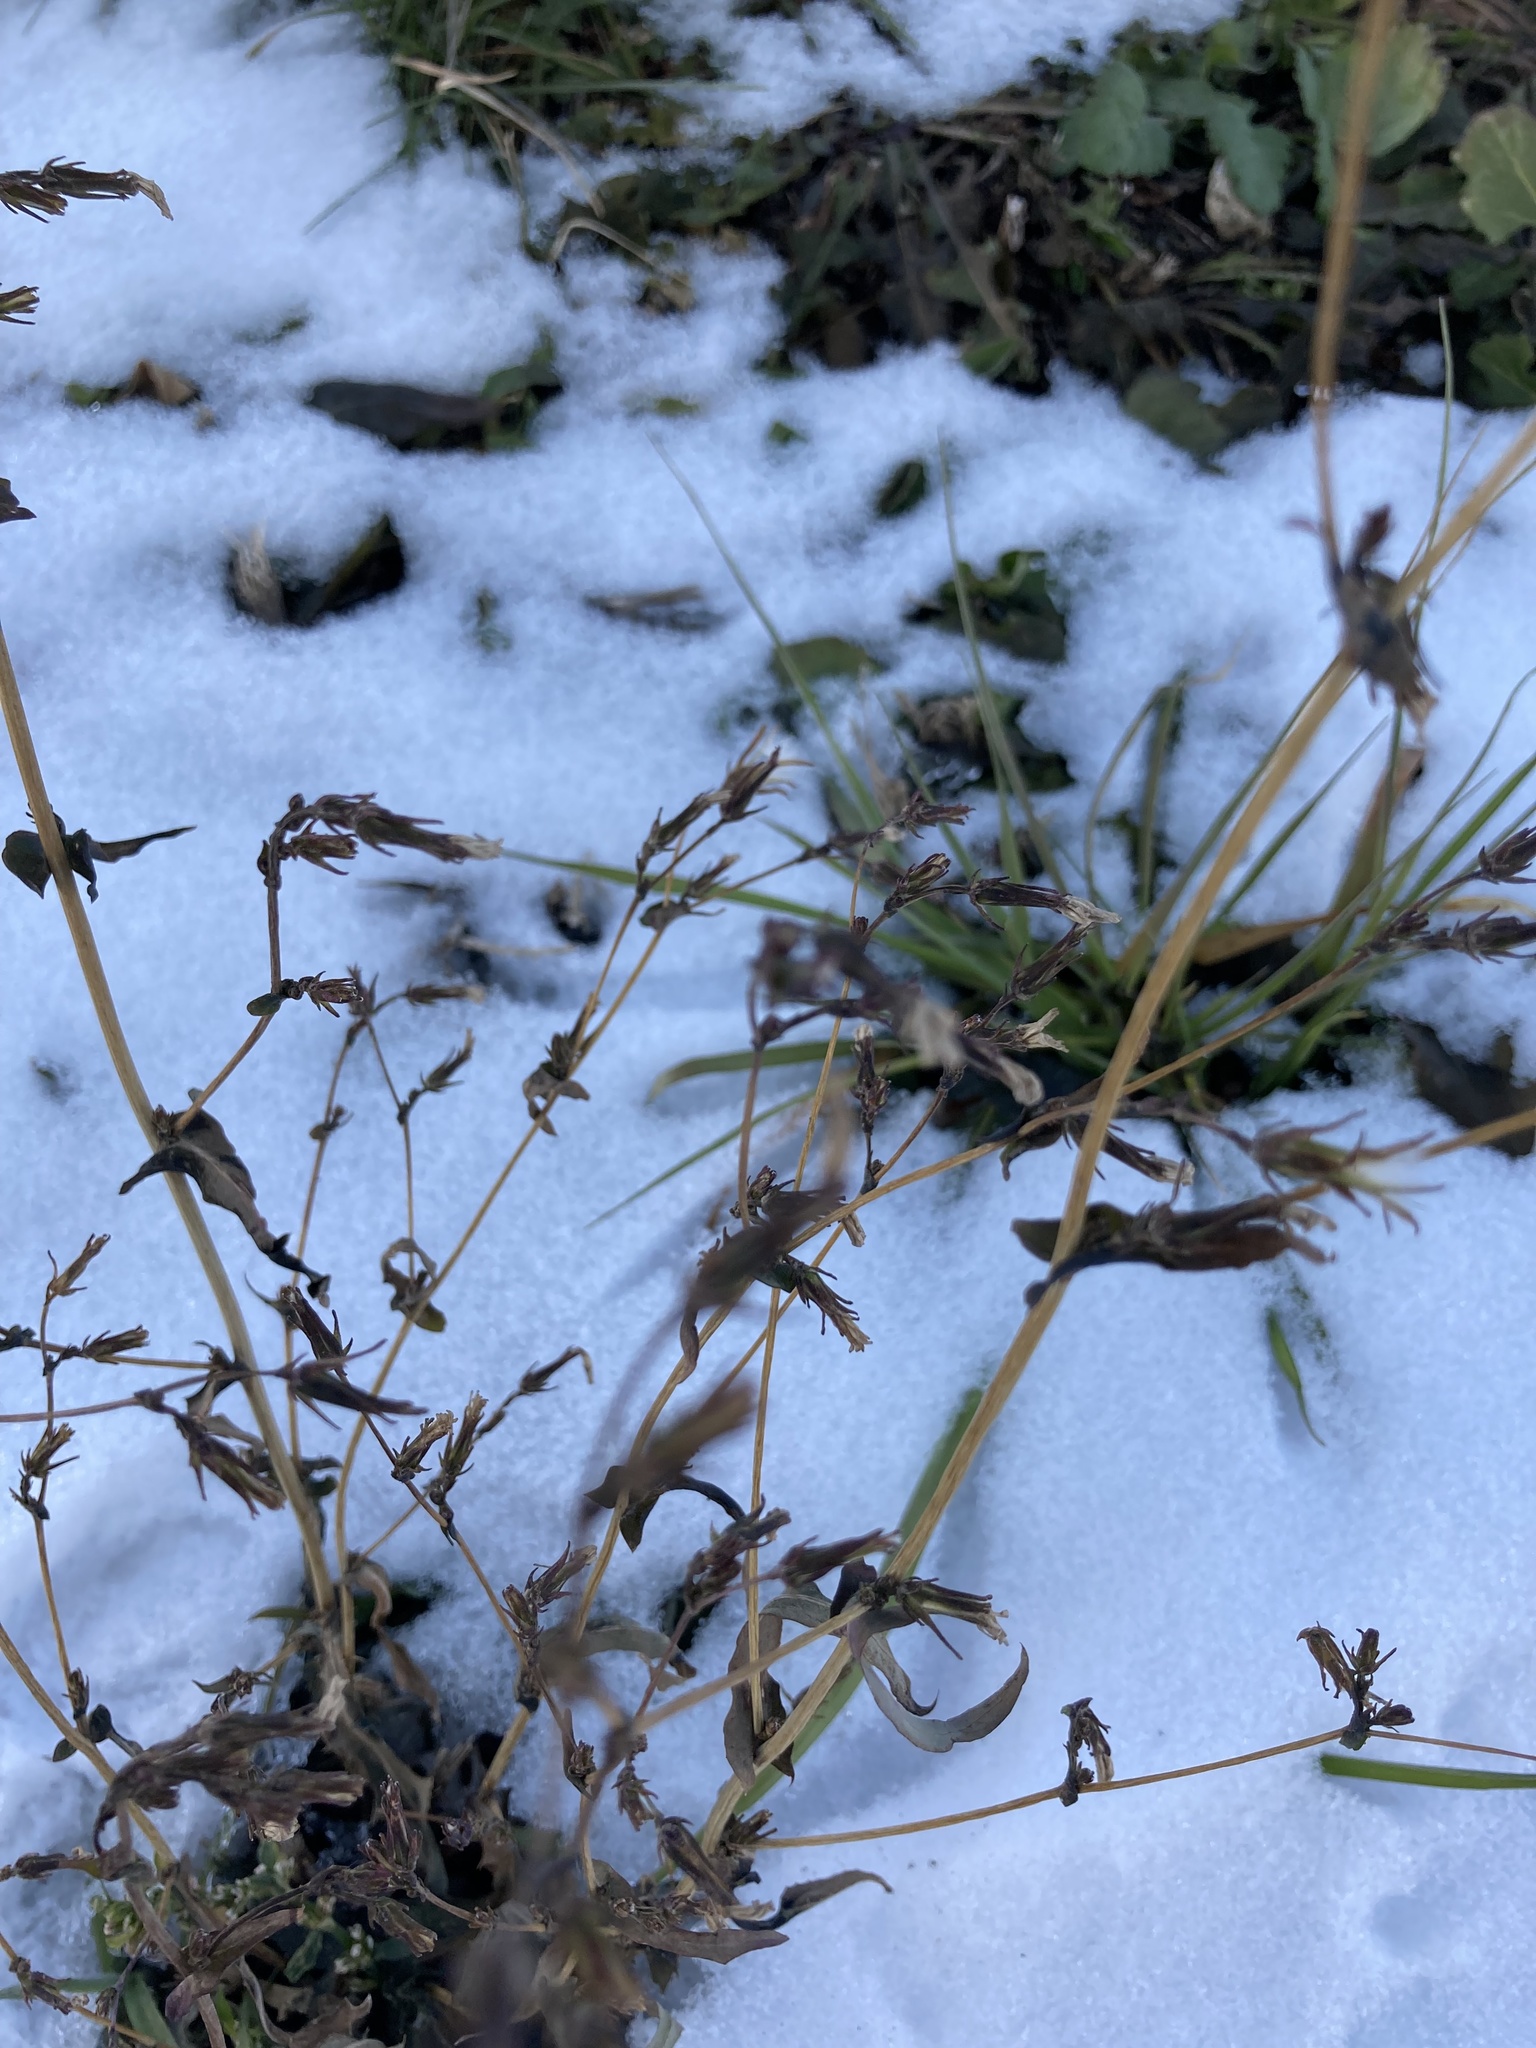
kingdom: Plantae
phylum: Tracheophyta
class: Magnoliopsida
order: Asterales
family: Asteraceae
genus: Lactuca
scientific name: Lactuca serriola
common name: Prickly lettuce
